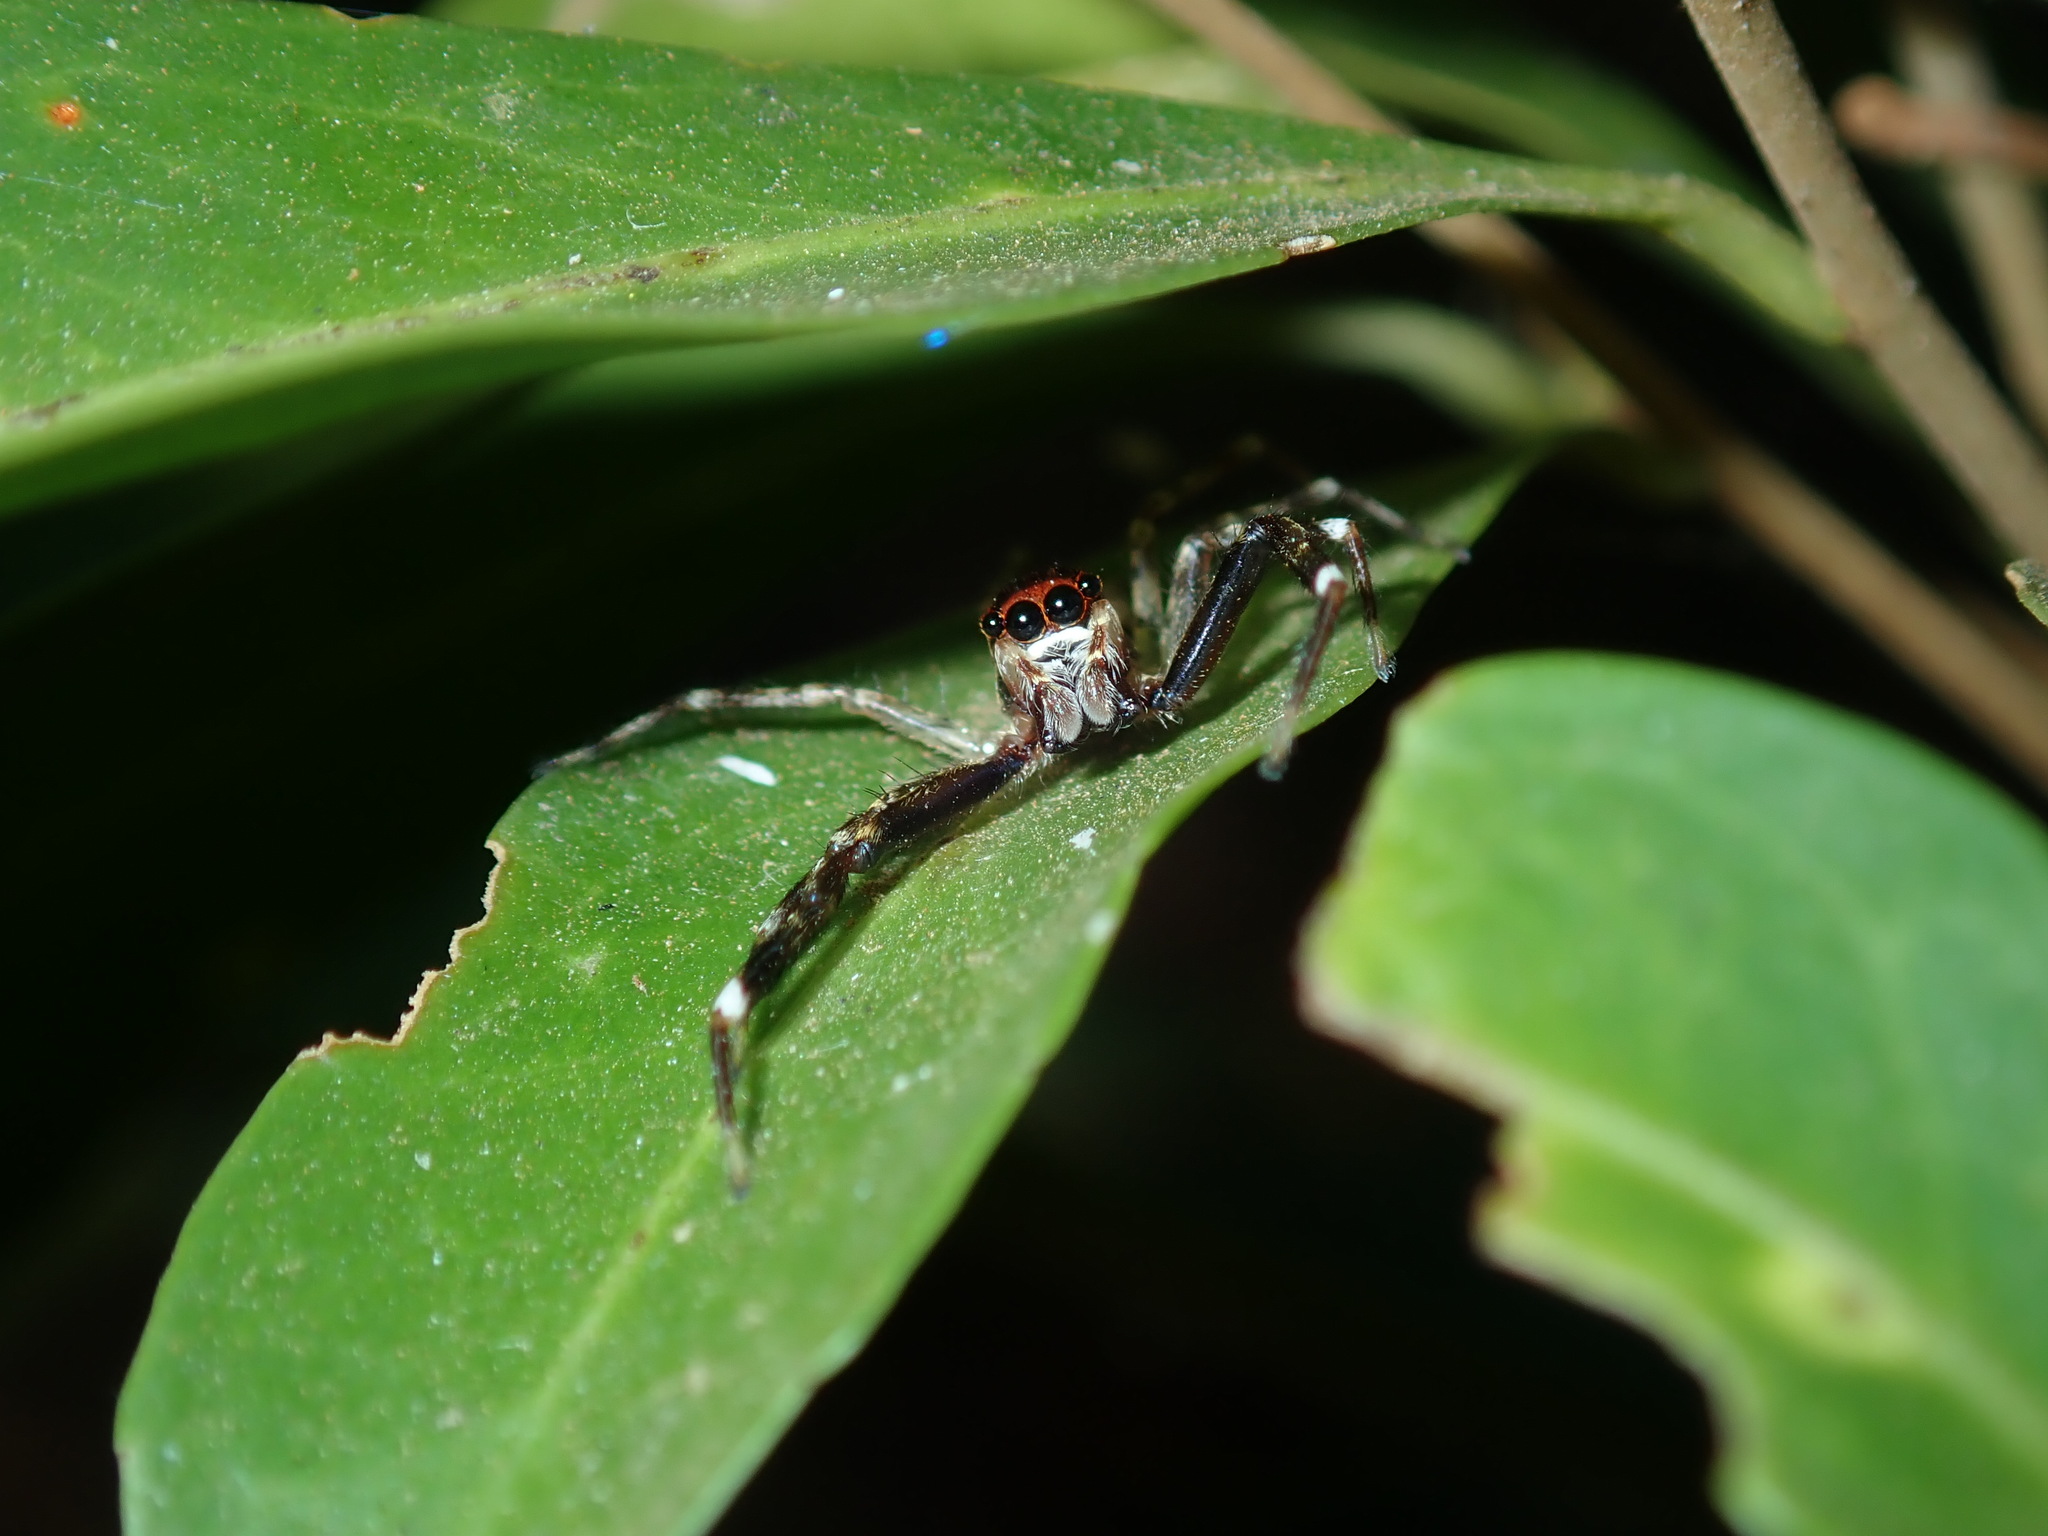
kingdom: Animalia
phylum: Arthropoda
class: Arachnida
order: Araneae
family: Salticidae
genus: Helpis
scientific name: Helpis minitabunda
